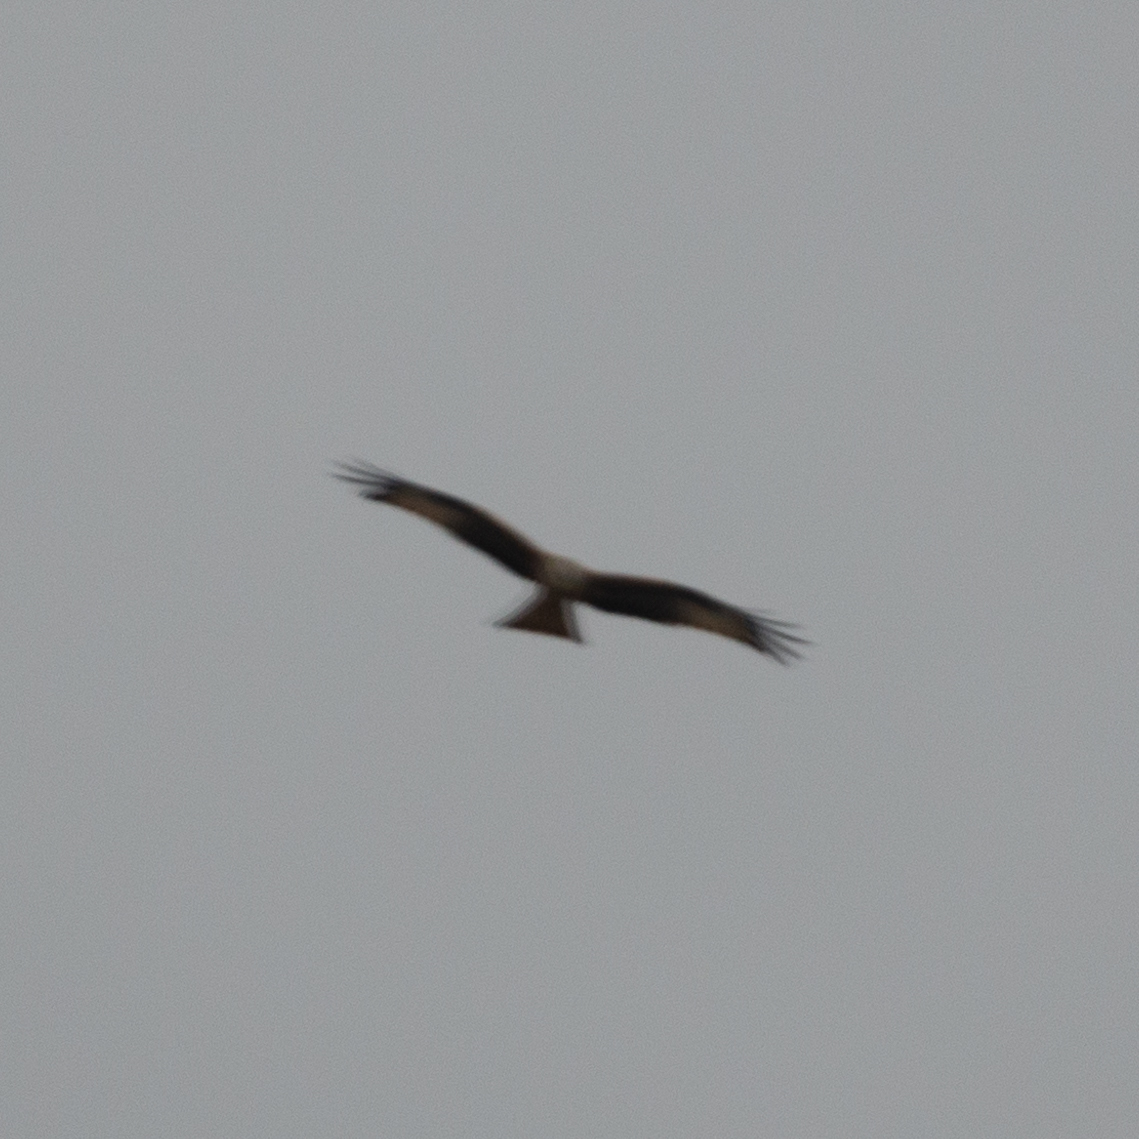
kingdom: Animalia
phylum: Chordata
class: Aves
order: Accipitriformes
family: Accipitridae
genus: Milvus
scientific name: Milvus milvus
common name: Red kite
